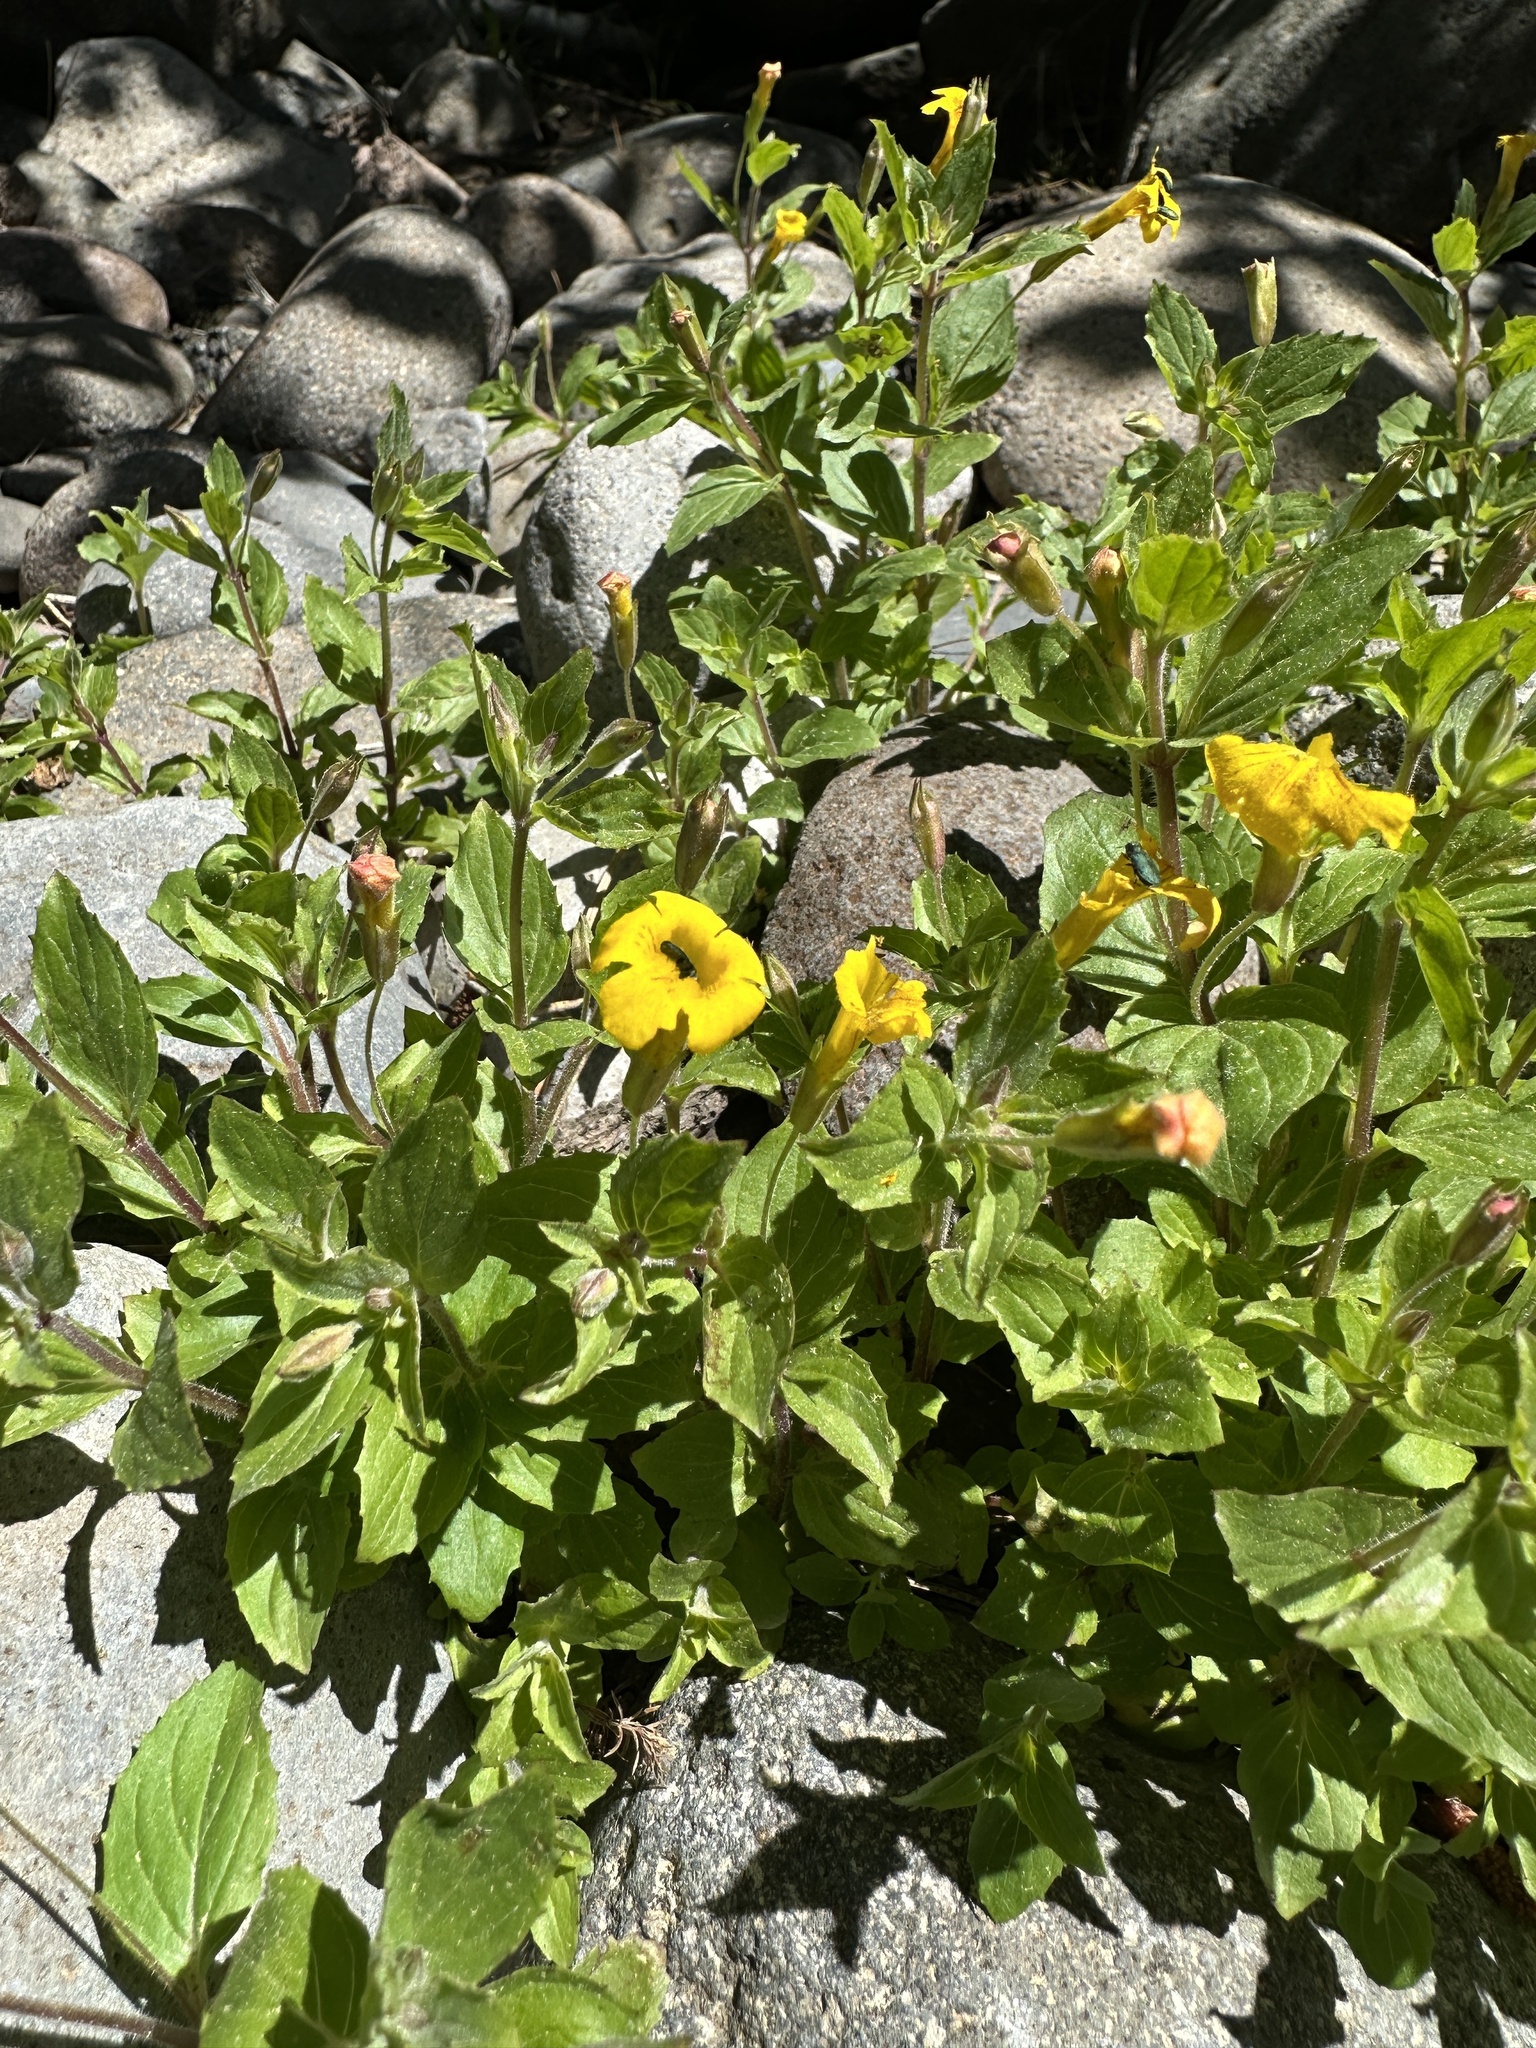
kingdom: Plantae
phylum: Tracheophyta
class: Magnoliopsida
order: Lamiales
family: Phrymaceae
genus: Erythranthe
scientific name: Erythranthe moschata
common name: Muskflower
